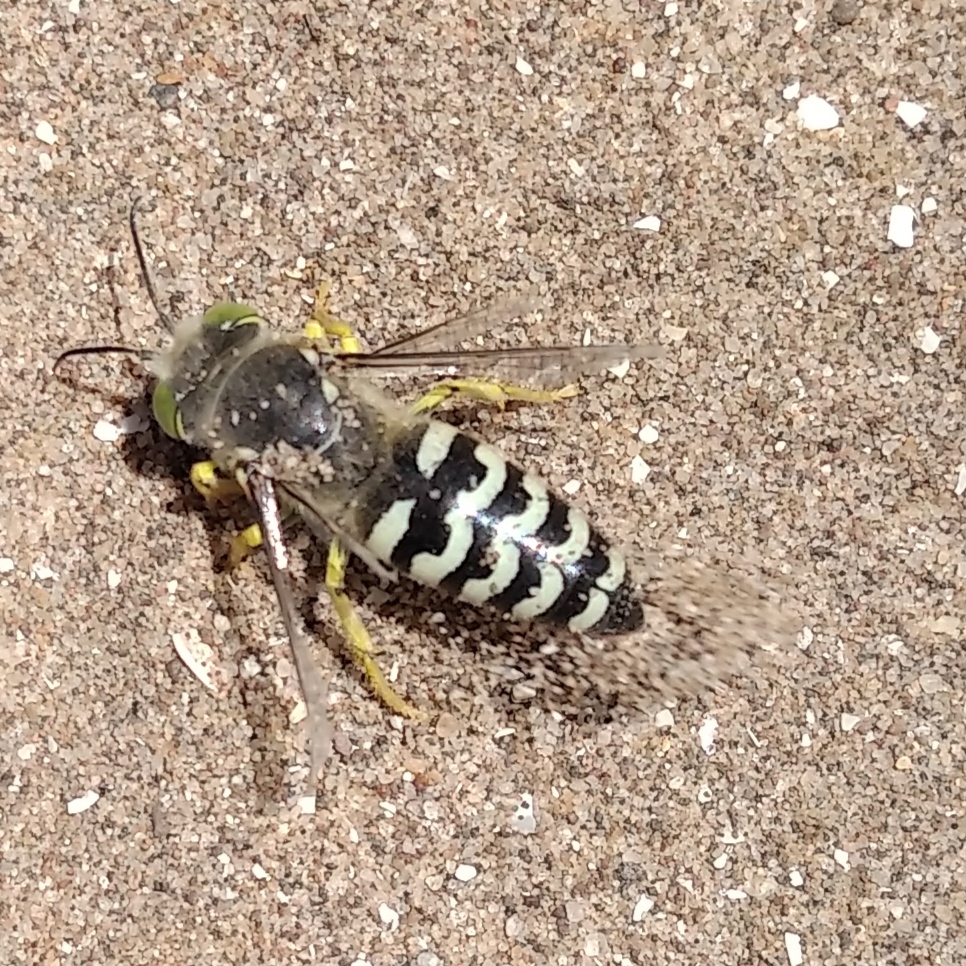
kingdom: Animalia
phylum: Arthropoda
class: Insecta
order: Hymenoptera
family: Crabronidae
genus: Bembix
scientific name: Bembix citripes
